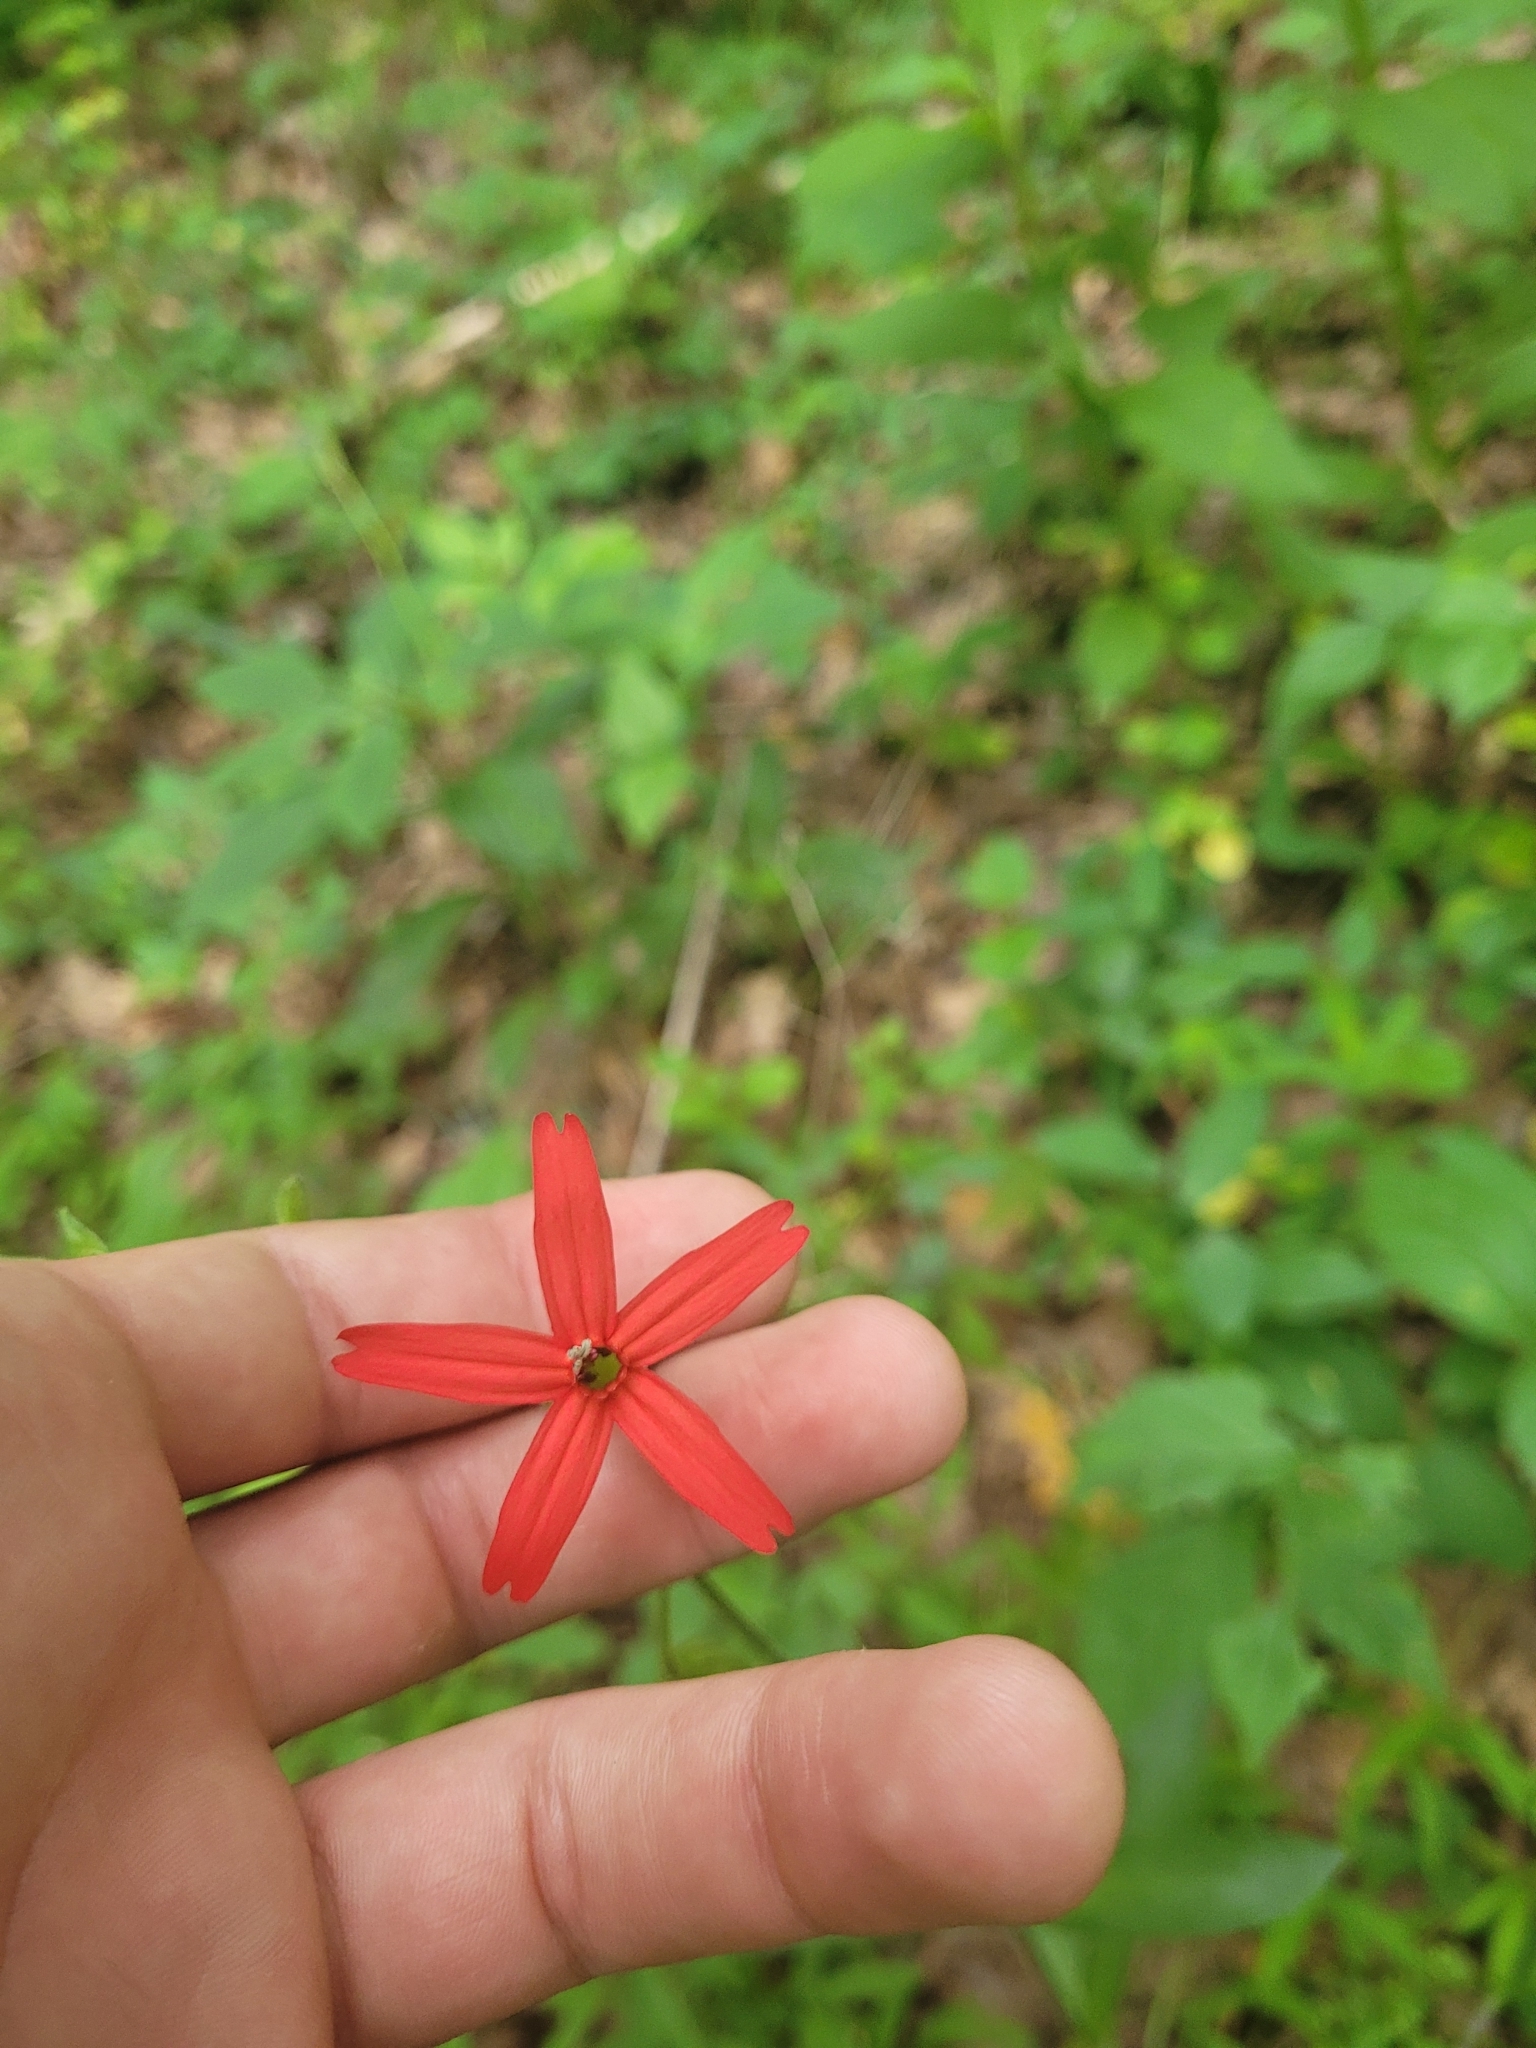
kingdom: Plantae
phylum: Tracheophyta
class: Magnoliopsida
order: Caryophyllales
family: Caryophyllaceae
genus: Silene
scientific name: Silene virginica
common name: Fire-pink
